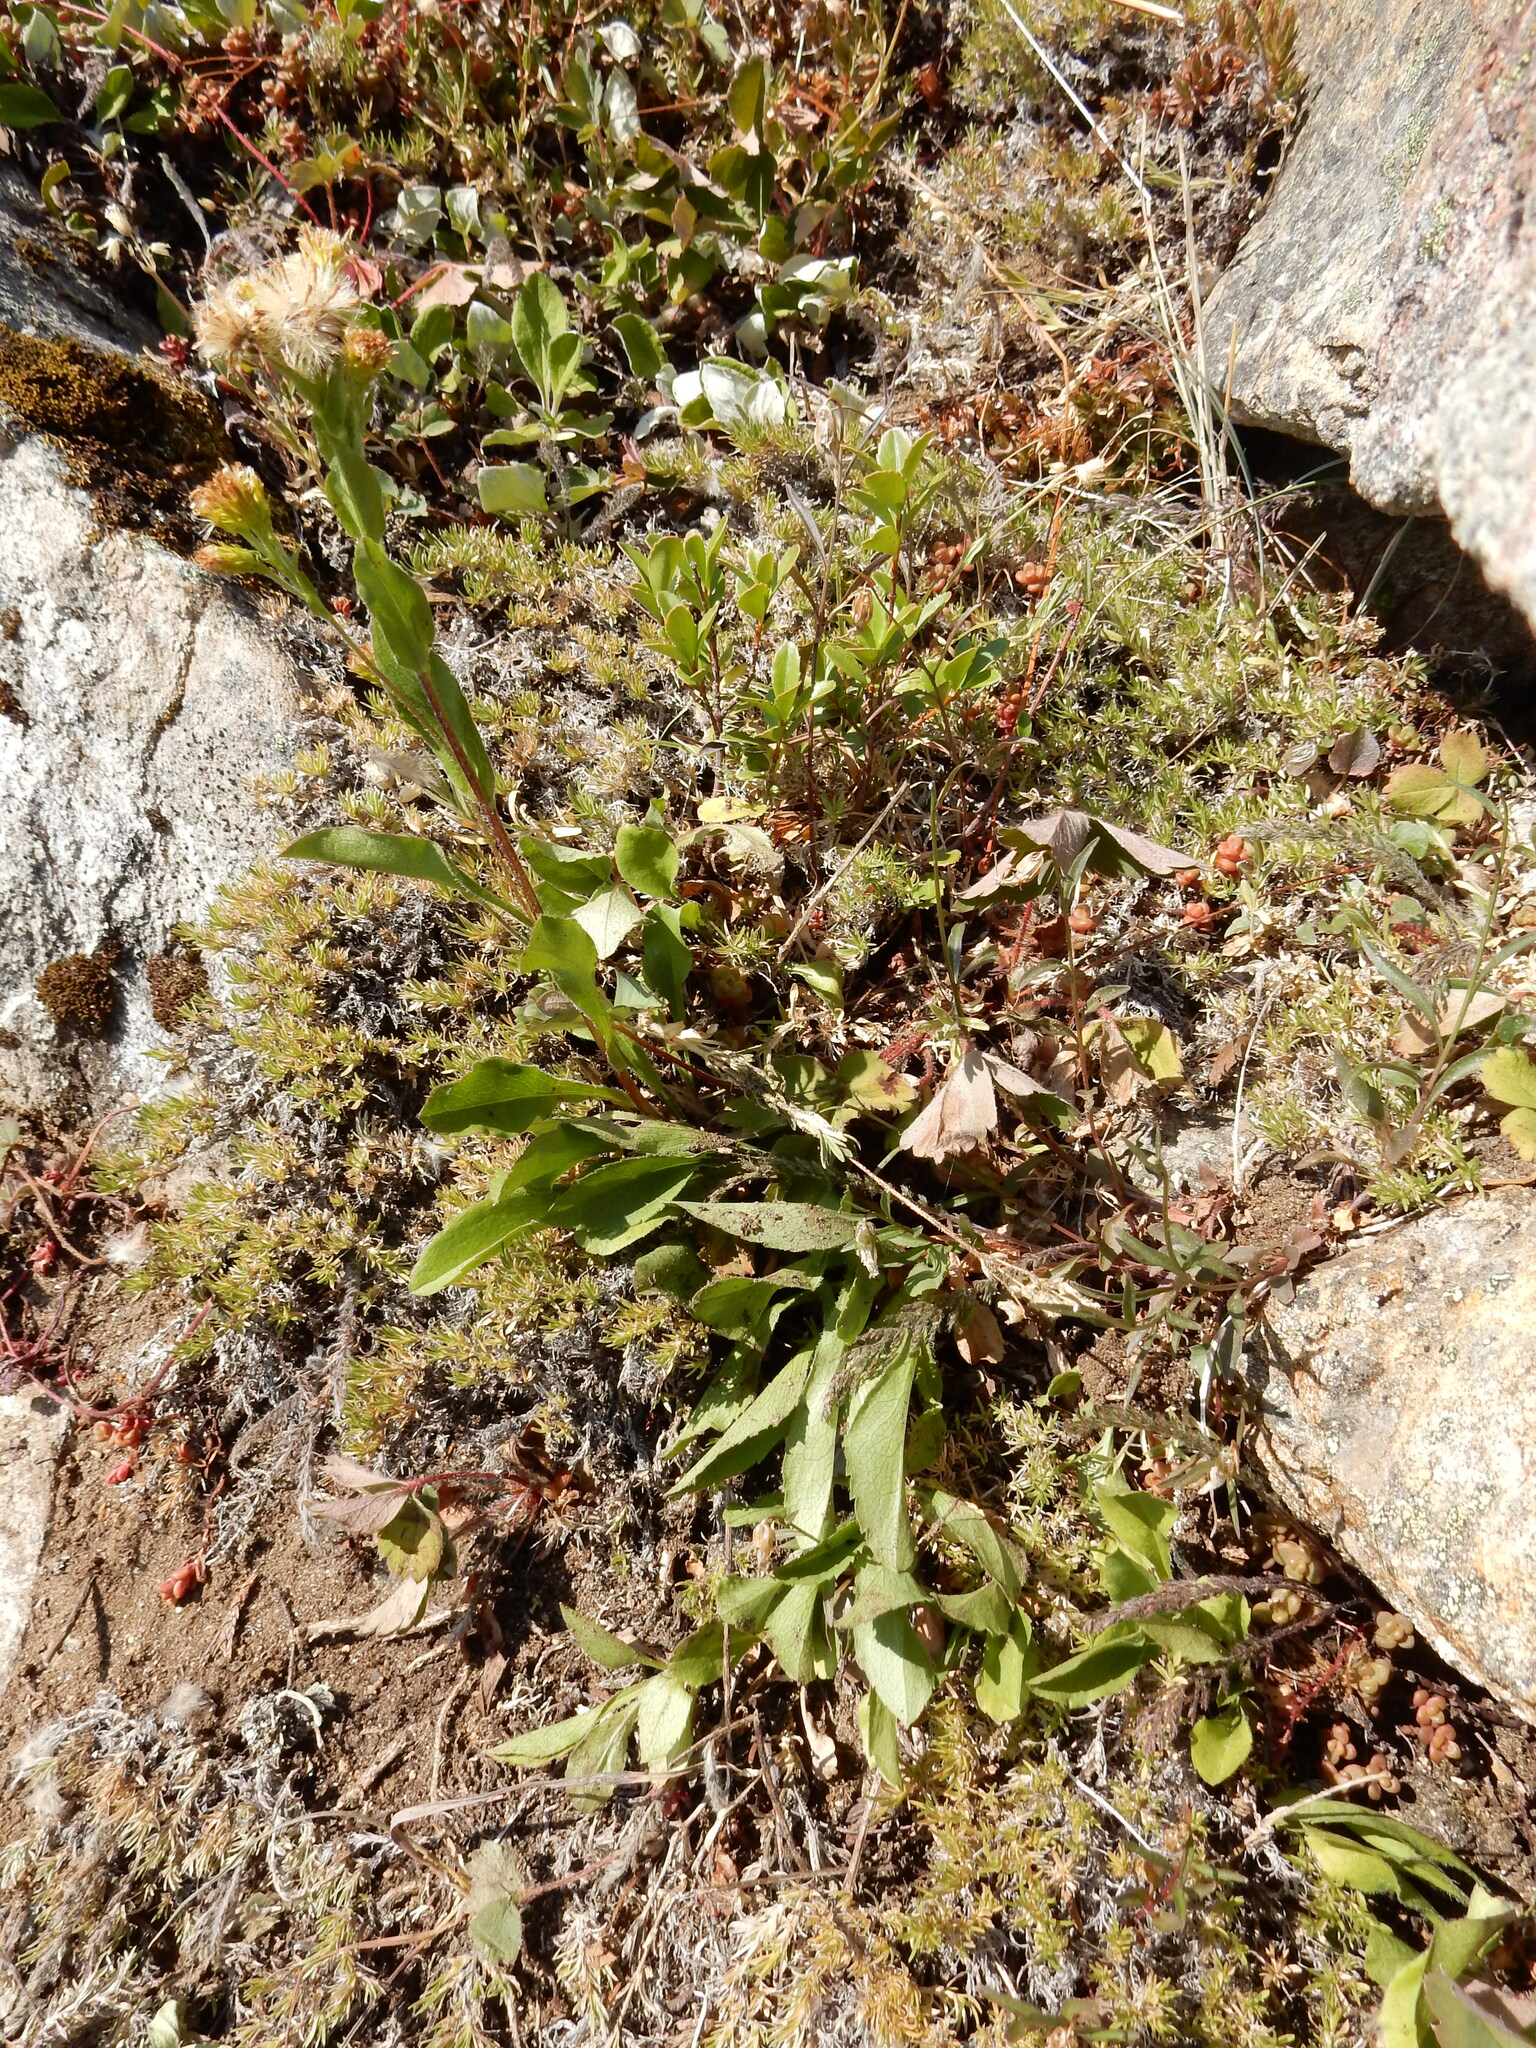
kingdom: Plantae
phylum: Tracheophyta
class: Magnoliopsida
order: Asterales
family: Asteraceae
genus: Solidago
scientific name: Solidago multiradiata
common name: Northern goldenrod
